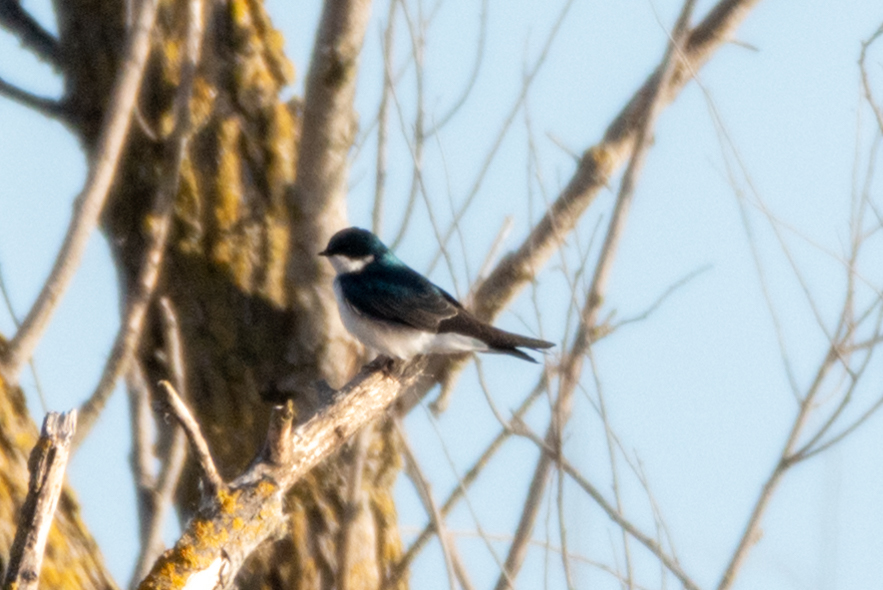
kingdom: Animalia
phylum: Chordata
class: Aves
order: Passeriformes
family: Hirundinidae
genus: Tachycineta
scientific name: Tachycineta bicolor
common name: Tree swallow
